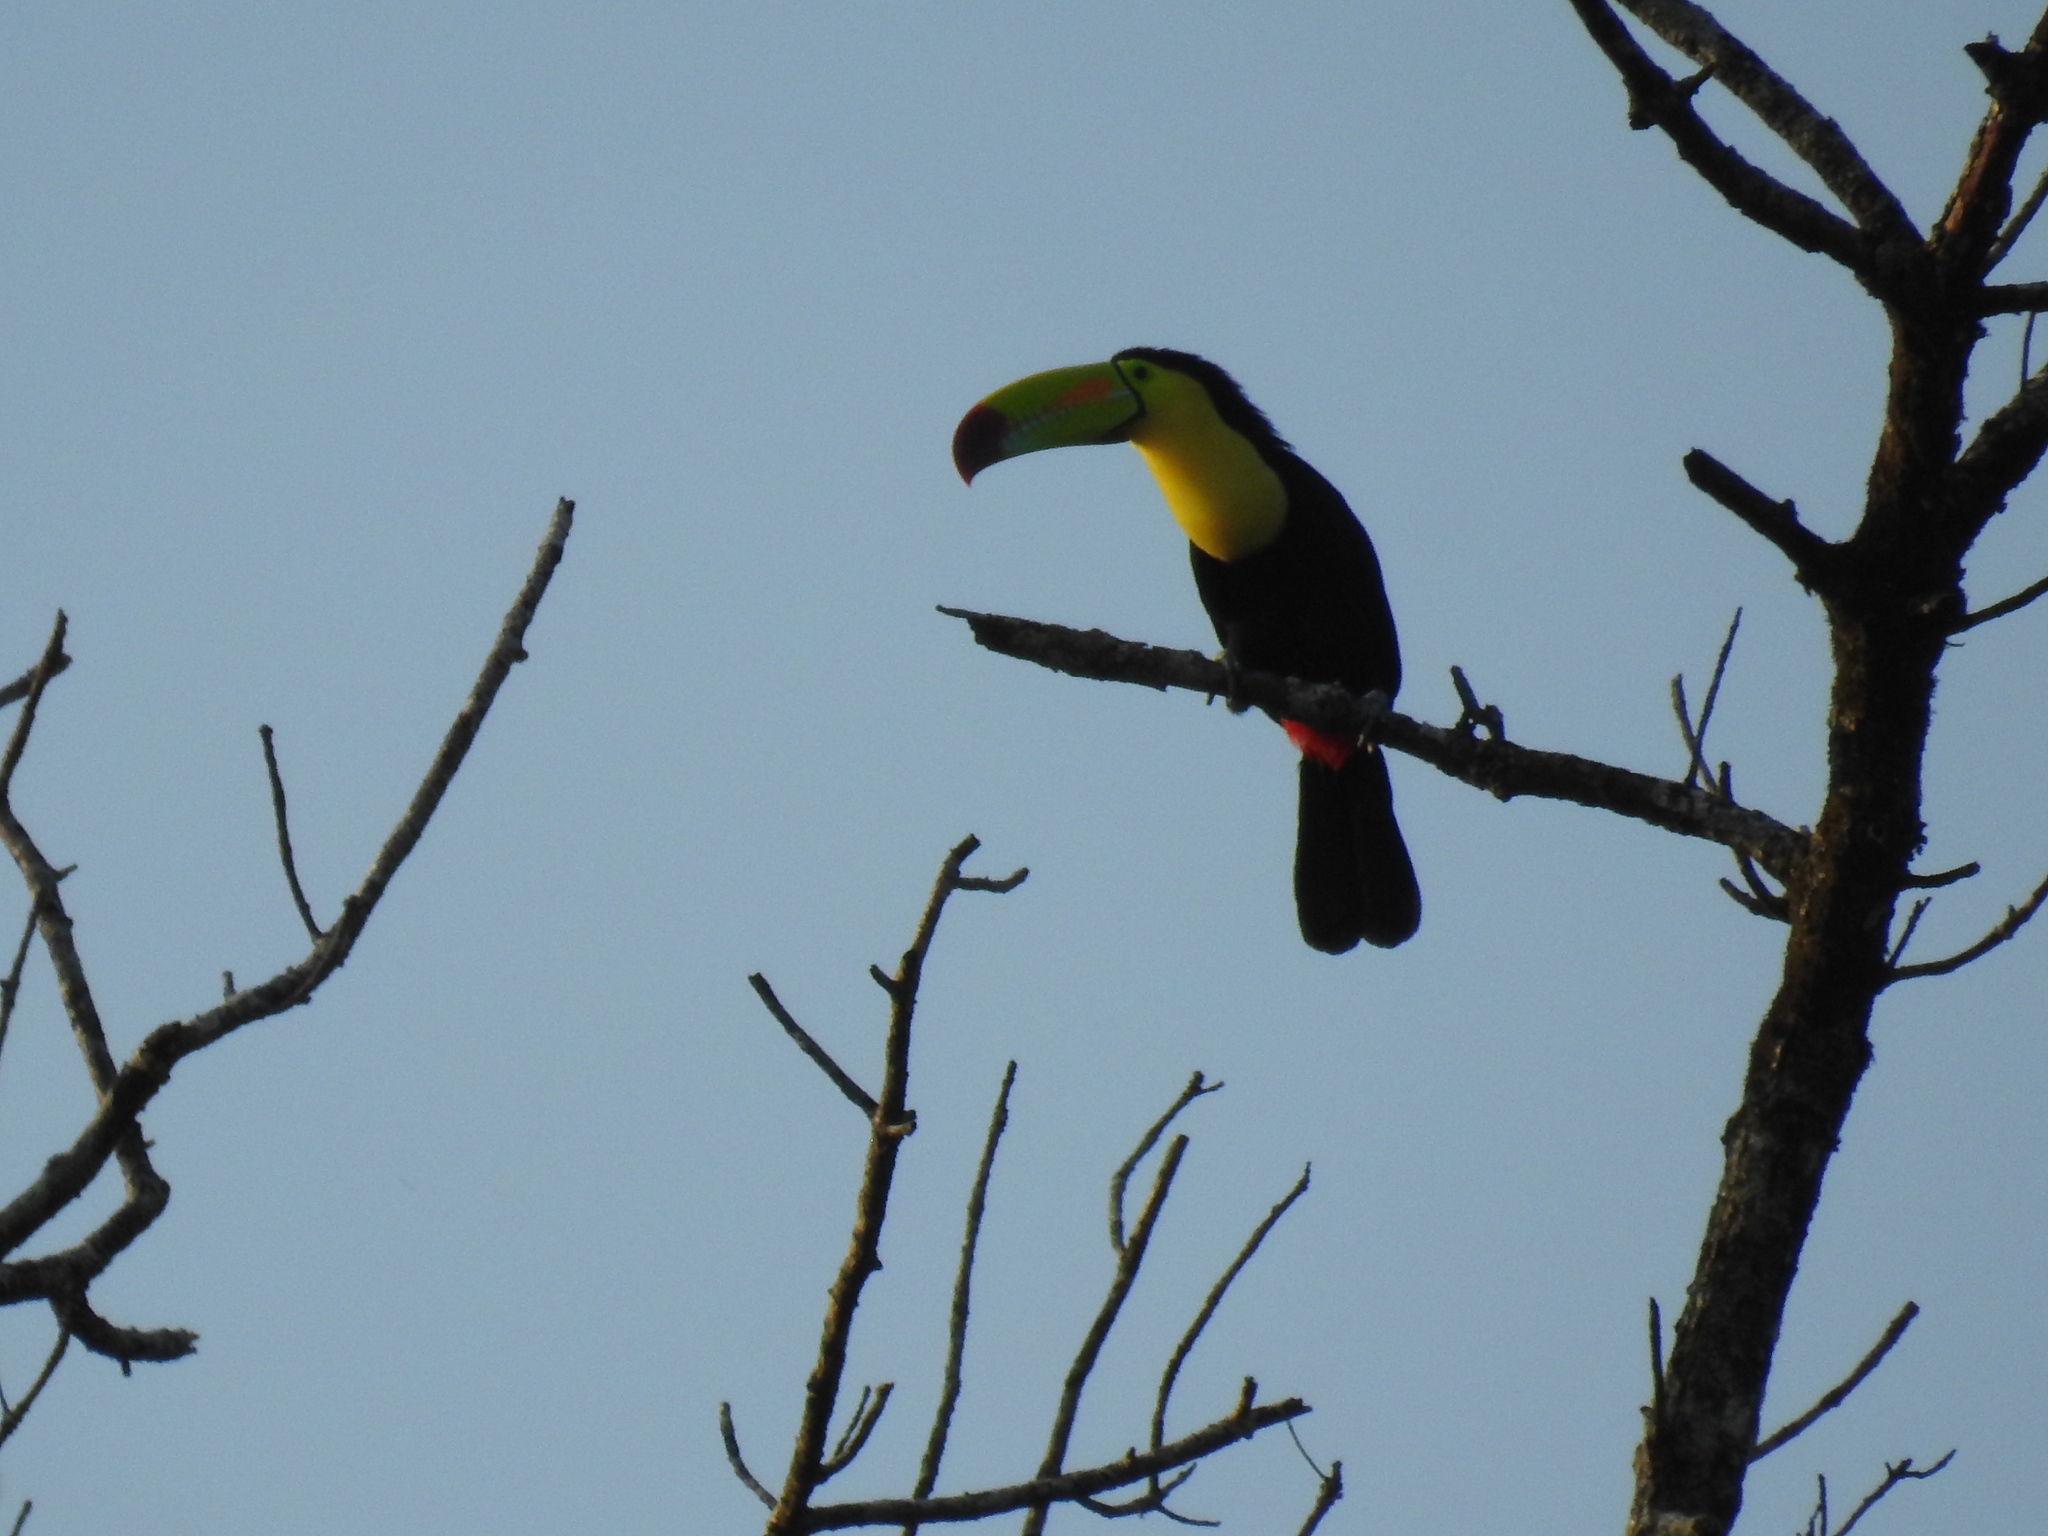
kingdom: Animalia
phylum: Chordata
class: Aves
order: Piciformes
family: Ramphastidae
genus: Ramphastos
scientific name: Ramphastos sulfuratus
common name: Keel-billed toucan
